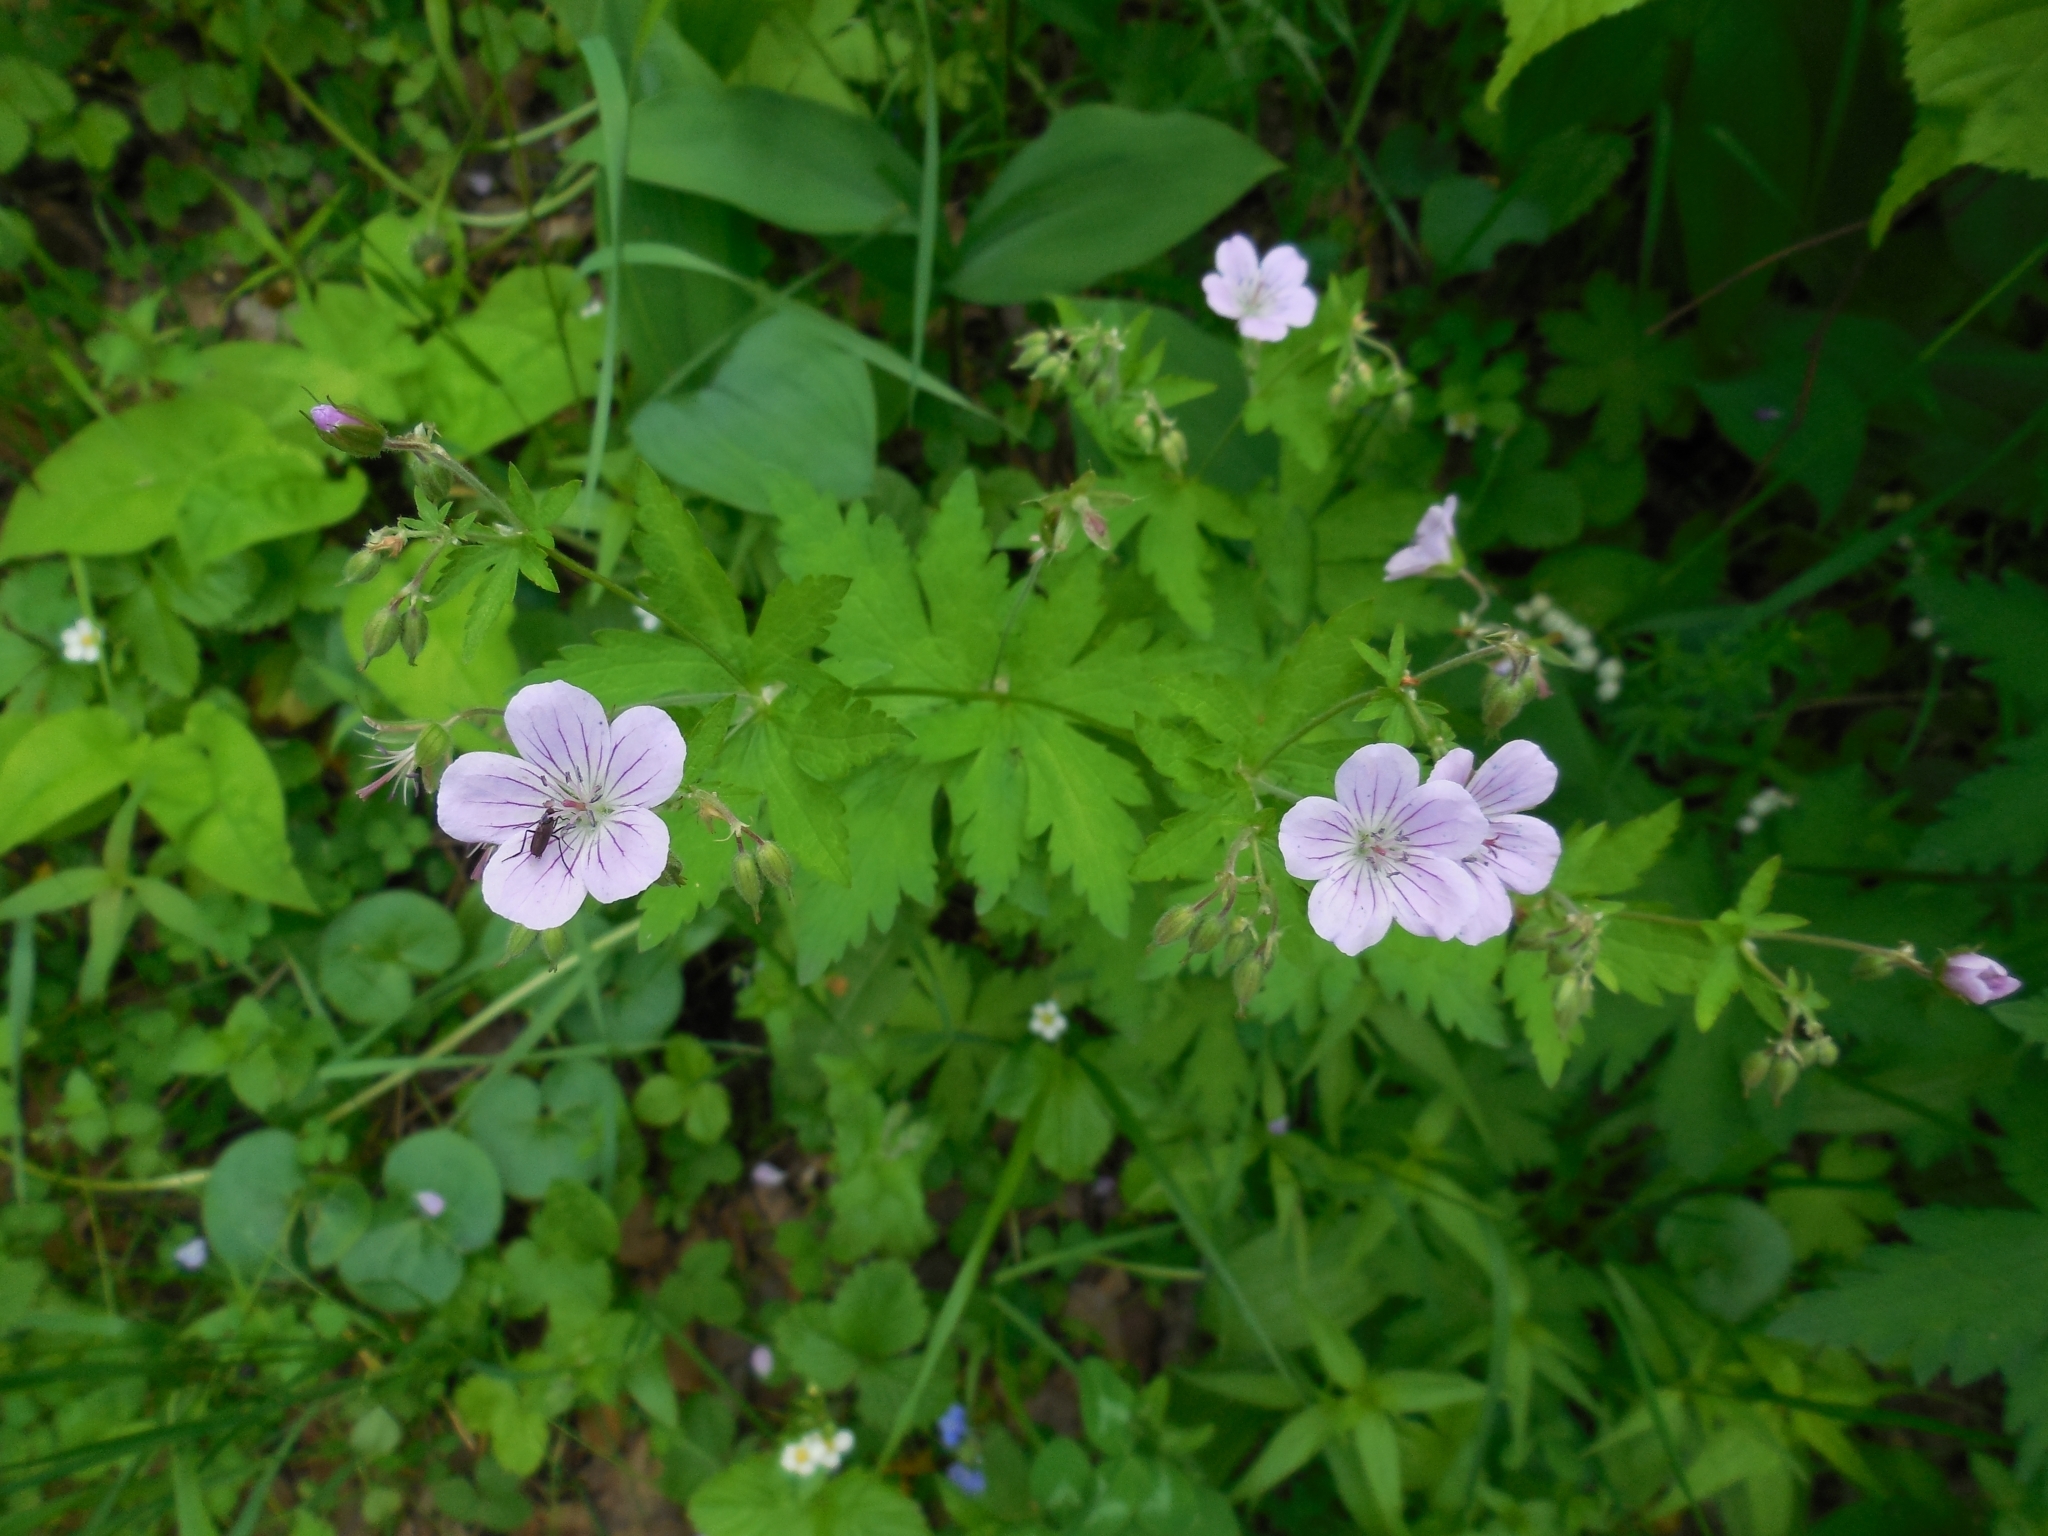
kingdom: Plantae
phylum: Tracheophyta
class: Magnoliopsida
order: Geraniales
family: Geraniaceae
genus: Geranium
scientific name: Geranium sylvaticum
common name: Wood crane's-bill
